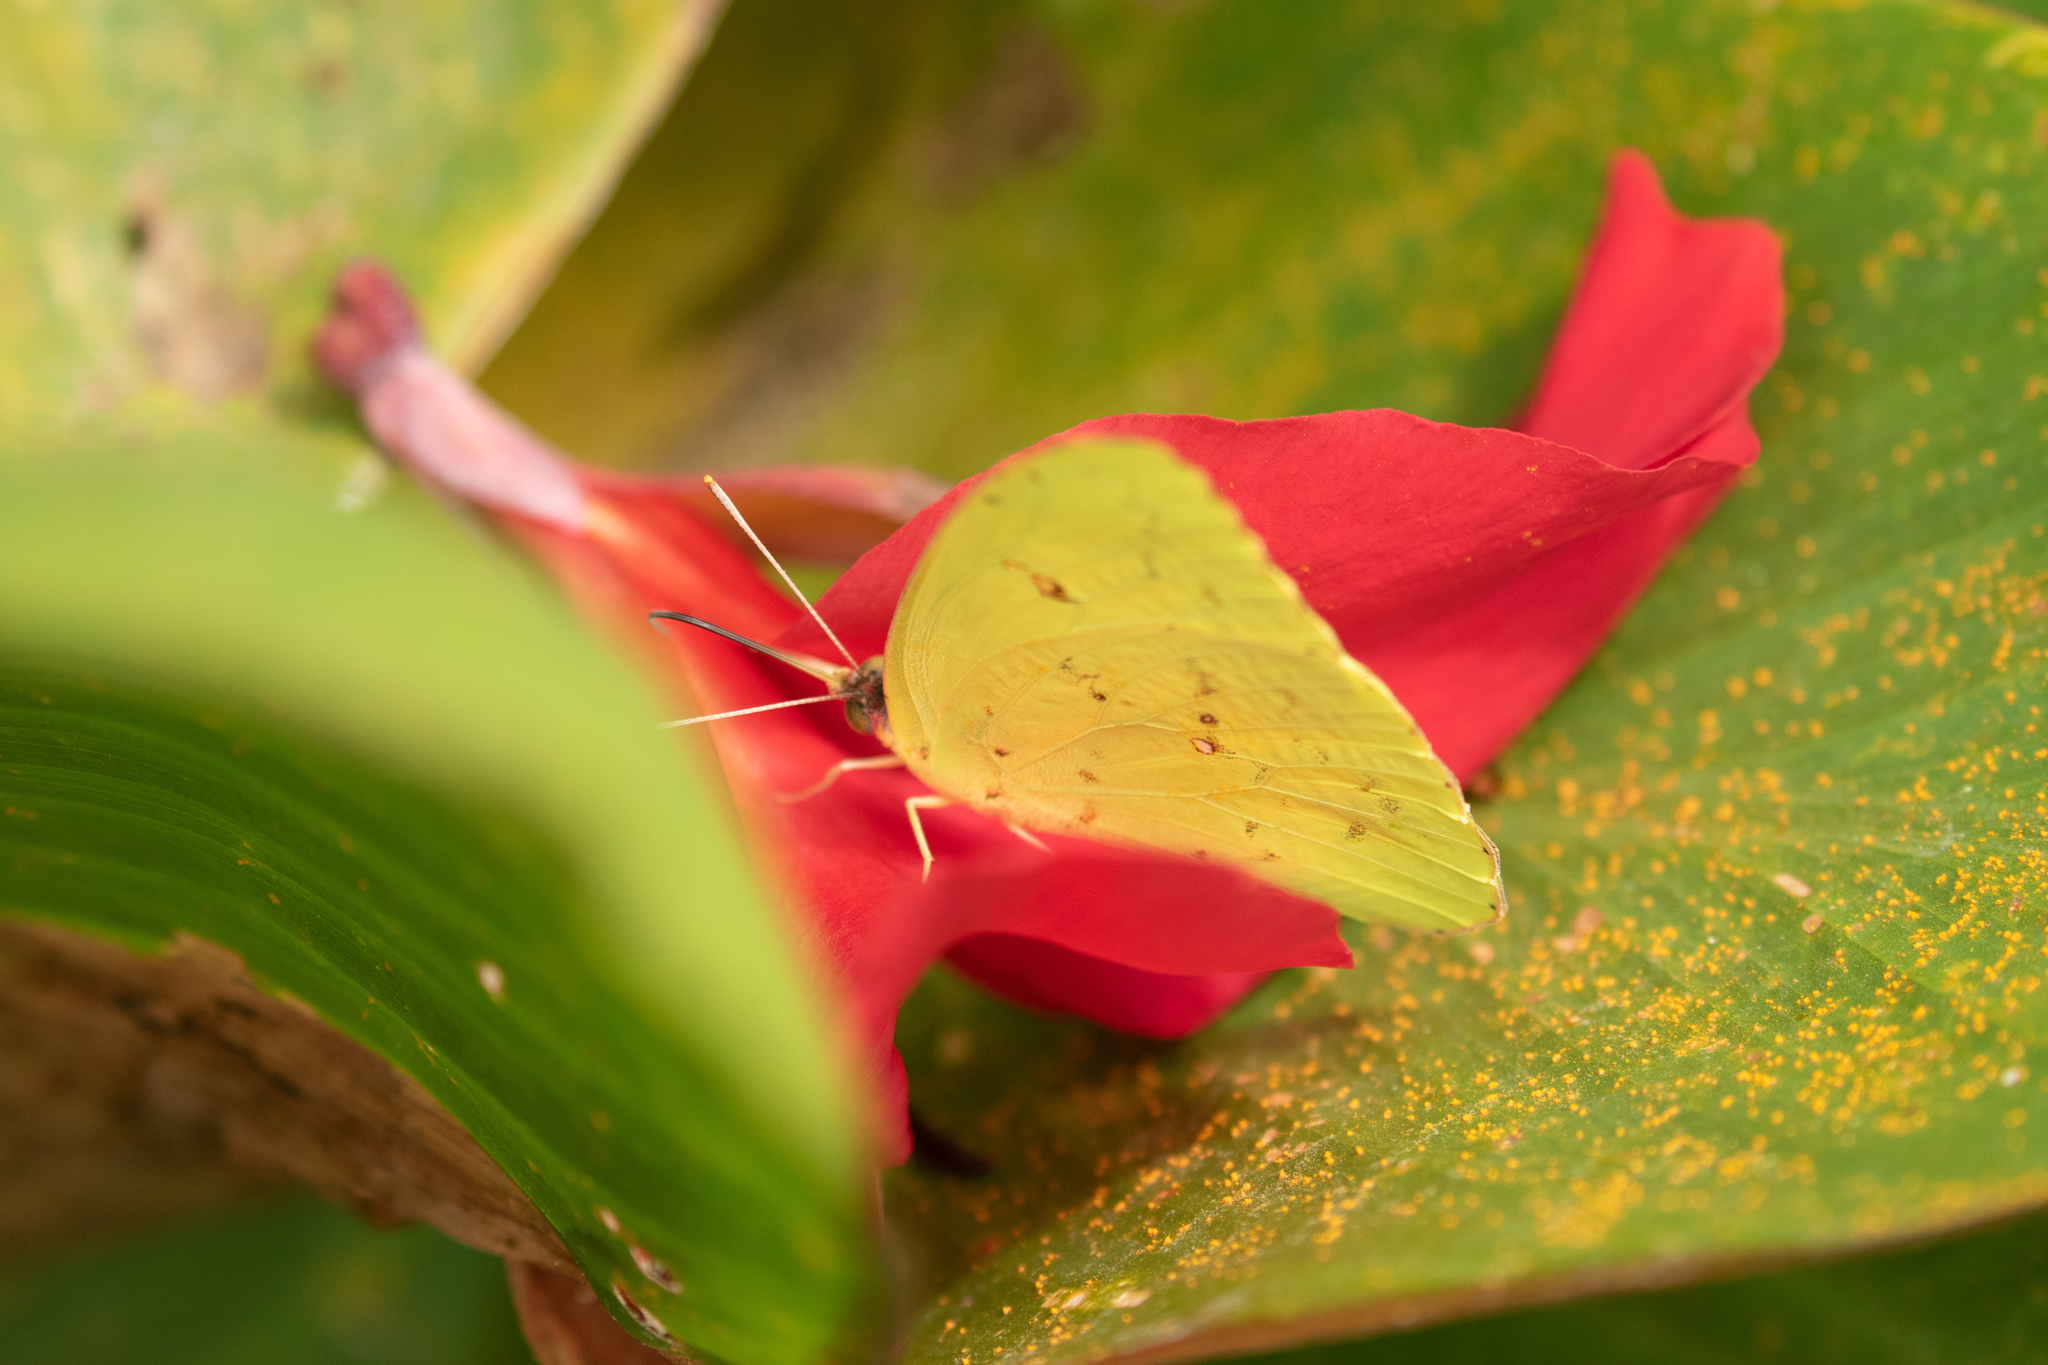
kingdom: Animalia
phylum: Arthropoda
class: Insecta
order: Lepidoptera
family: Pieridae
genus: Phoebis
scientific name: Phoebis sennae
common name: Cloudless sulphur
